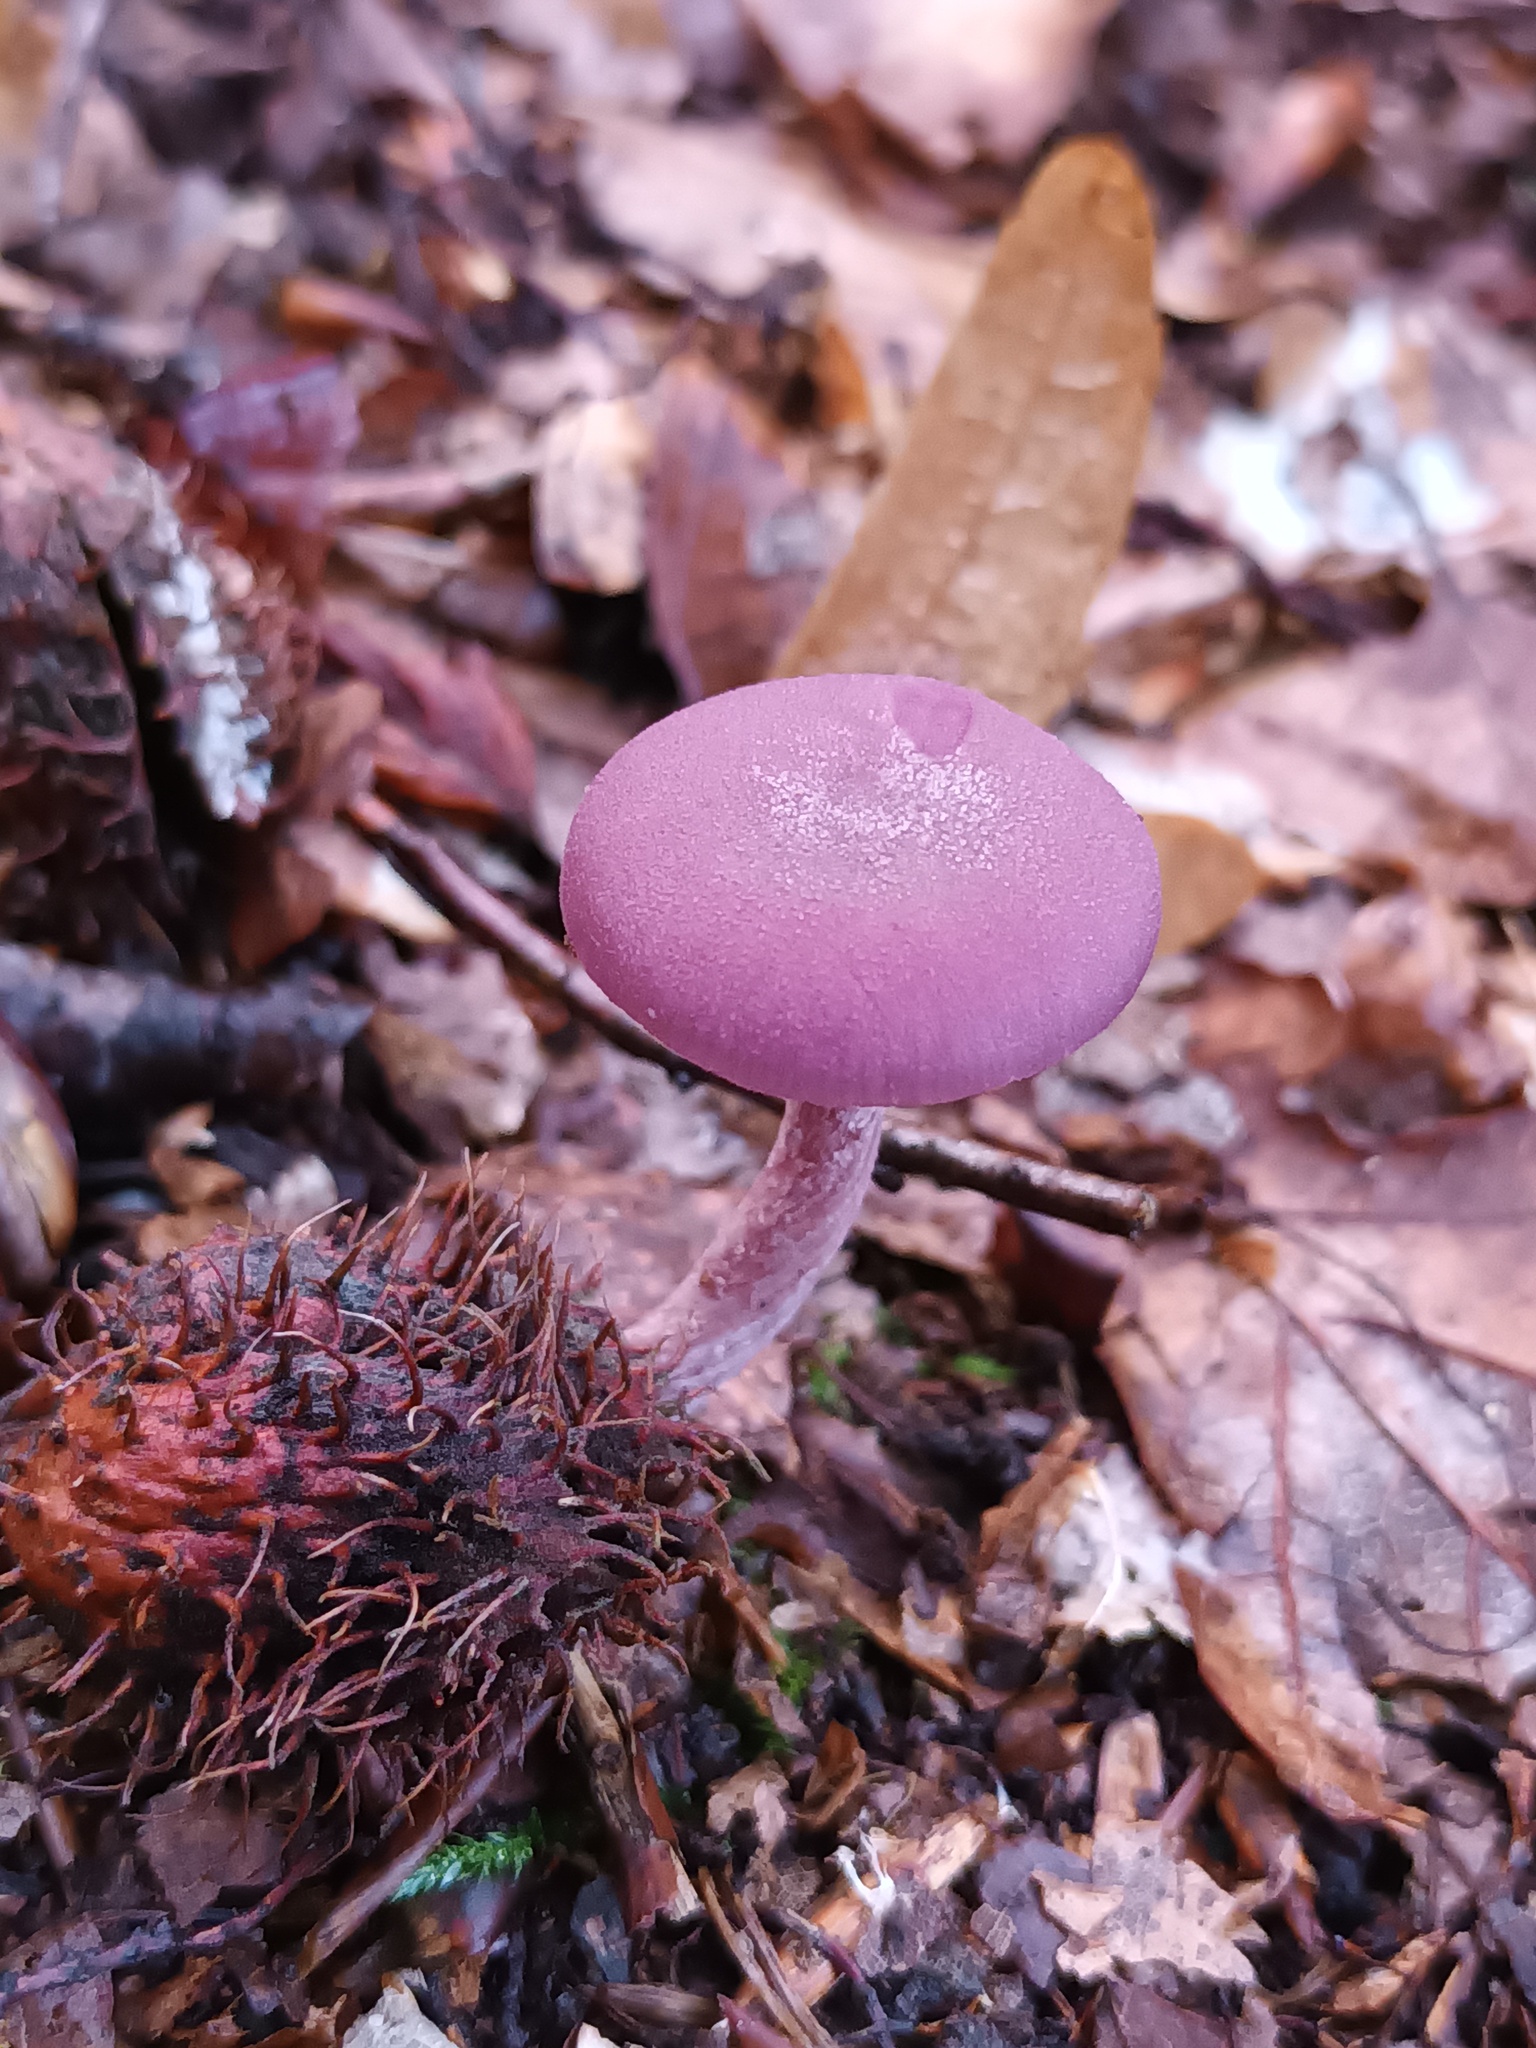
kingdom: Fungi
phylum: Basidiomycota
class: Agaricomycetes
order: Agaricales
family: Hydnangiaceae
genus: Laccaria
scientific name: Laccaria amethystina
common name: Amethyst deceiver
